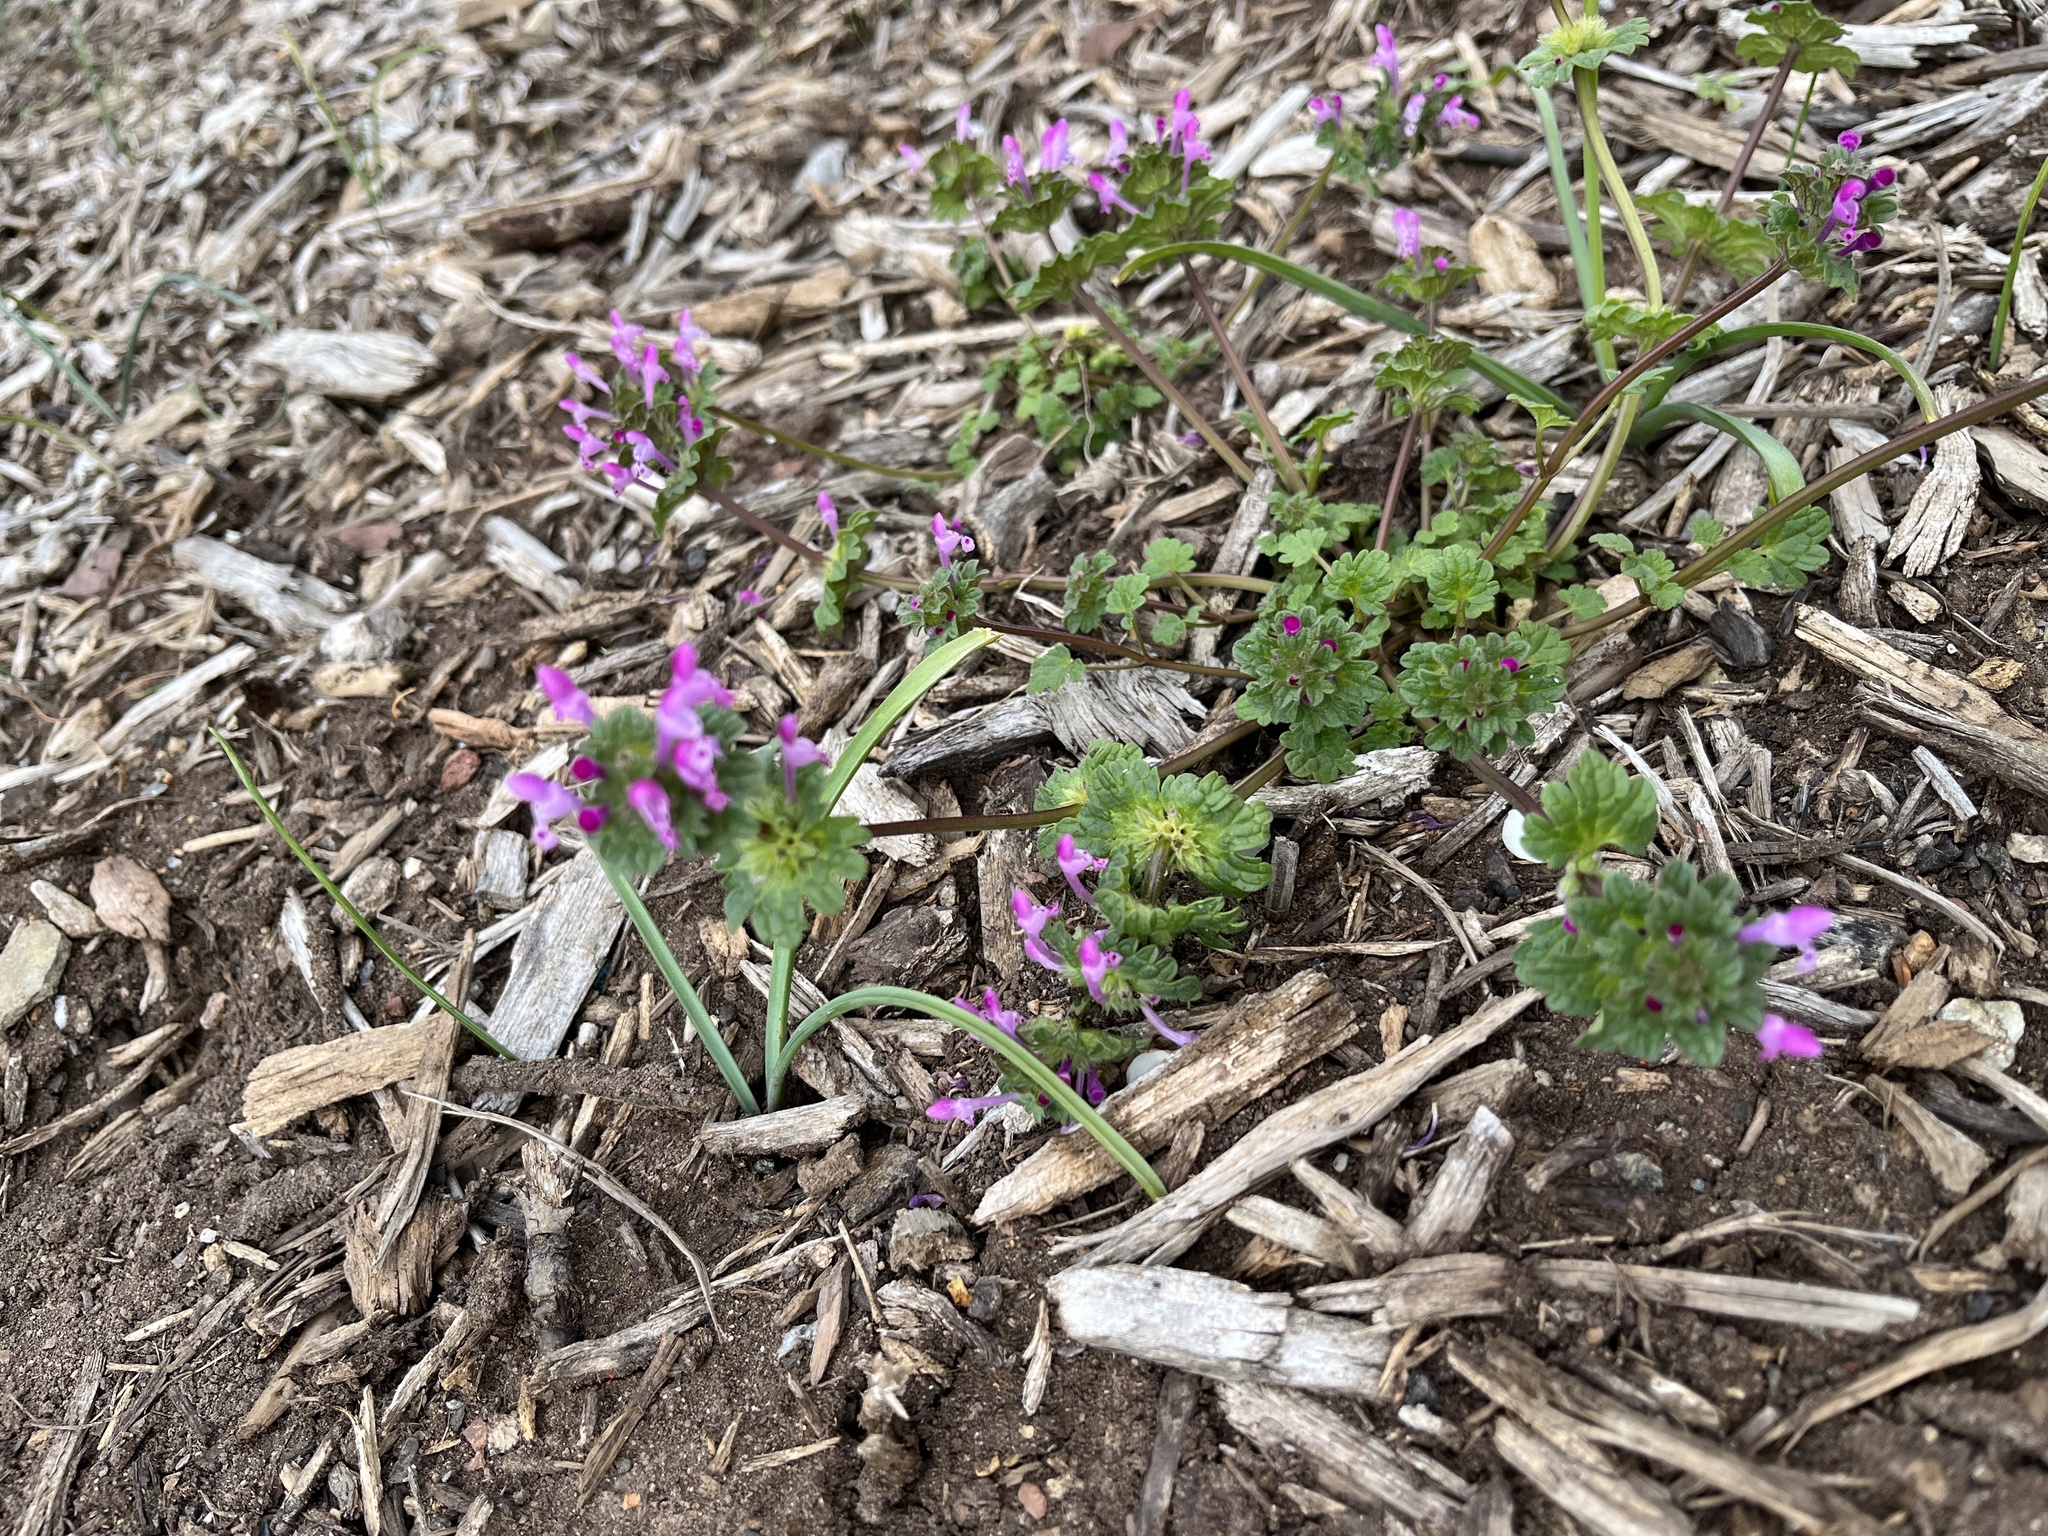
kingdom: Plantae
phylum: Tracheophyta
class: Magnoliopsida
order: Lamiales
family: Lamiaceae
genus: Lamium
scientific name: Lamium amplexicaule
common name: Henbit dead-nettle
